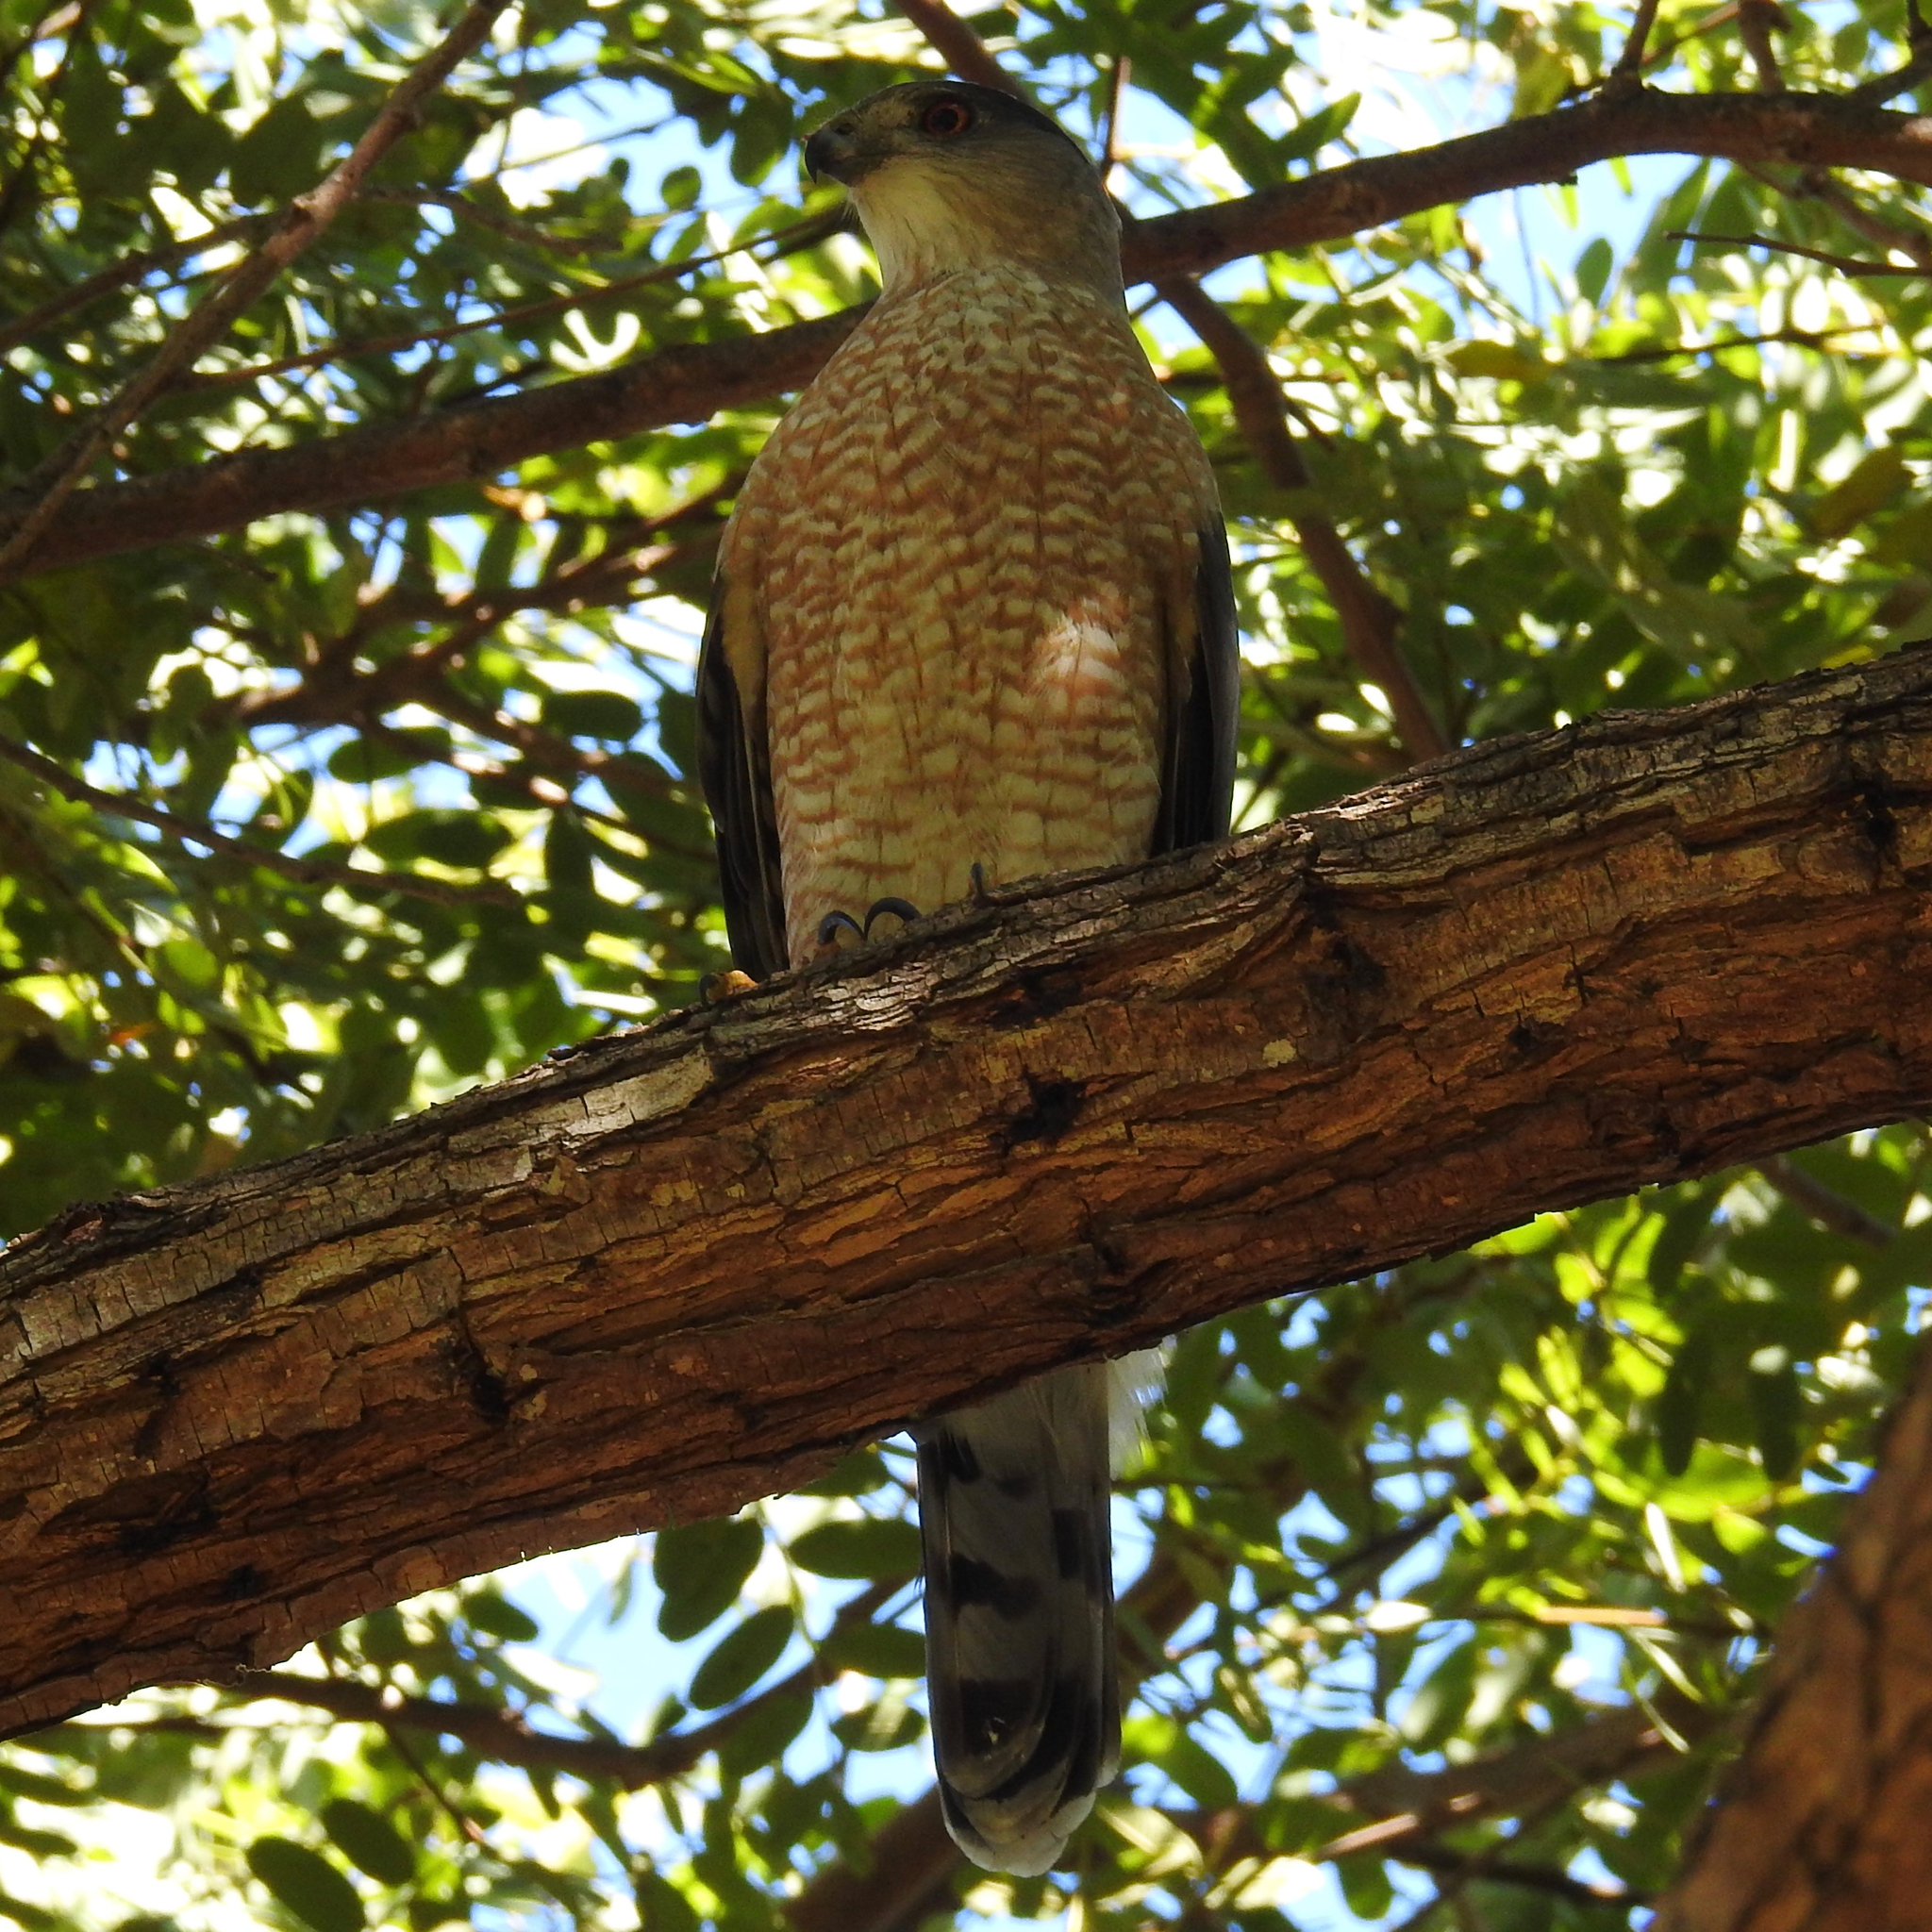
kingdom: Animalia
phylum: Chordata
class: Aves
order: Accipitriformes
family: Accipitridae
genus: Accipiter
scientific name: Accipiter cooperii
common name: Cooper's hawk
